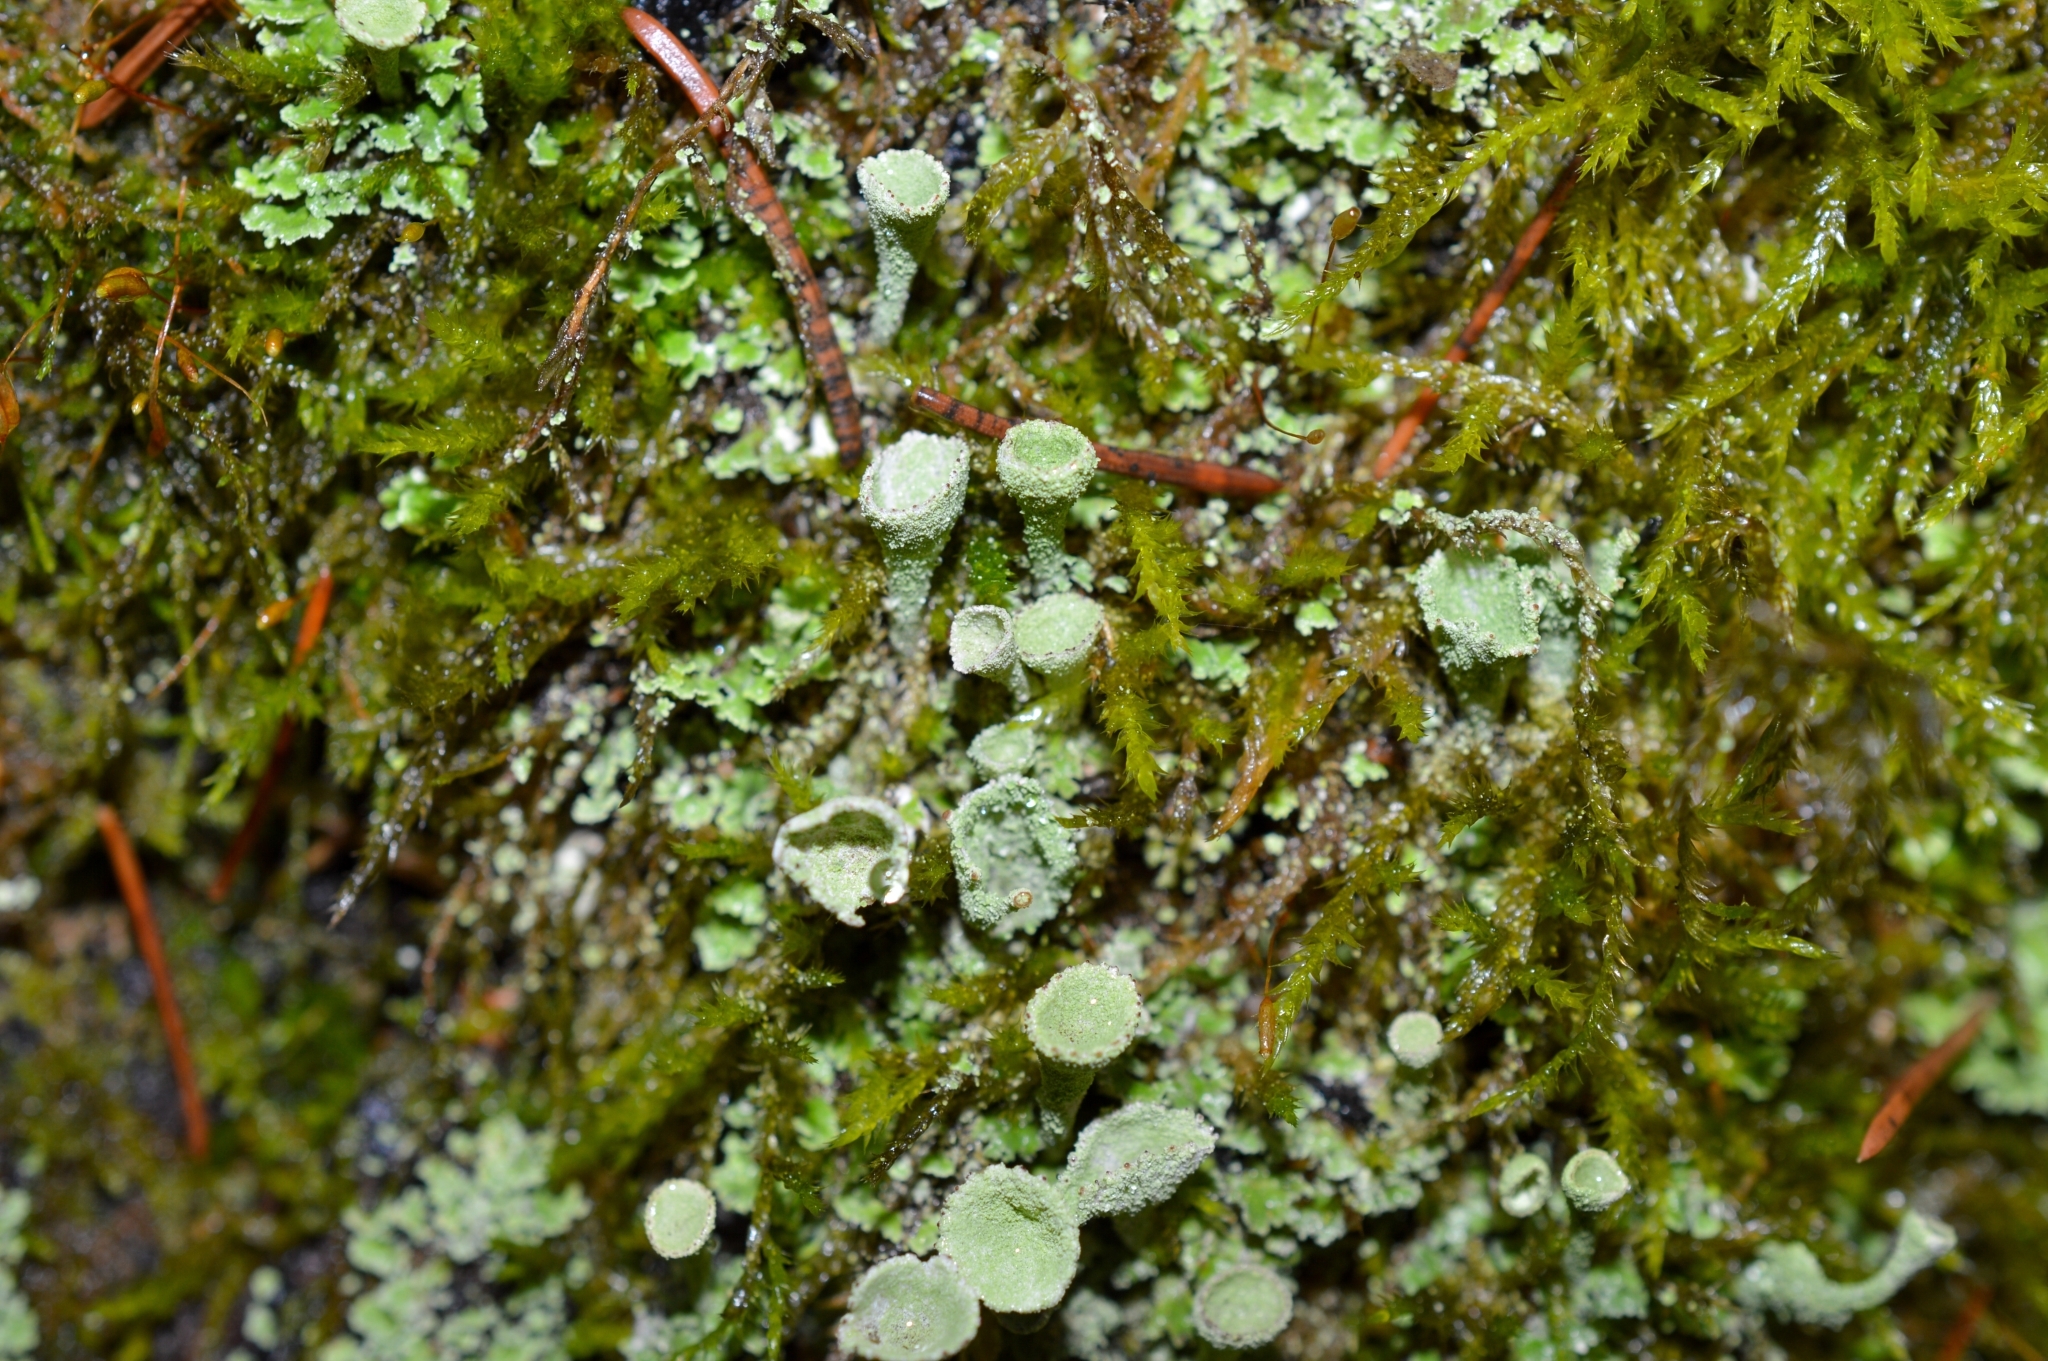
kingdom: Fungi
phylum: Ascomycota
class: Lecanoromycetes
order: Lecanorales
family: Cladoniaceae
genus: Cladonia
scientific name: Cladonia fimbriata
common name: Powdered trumpet lichen
